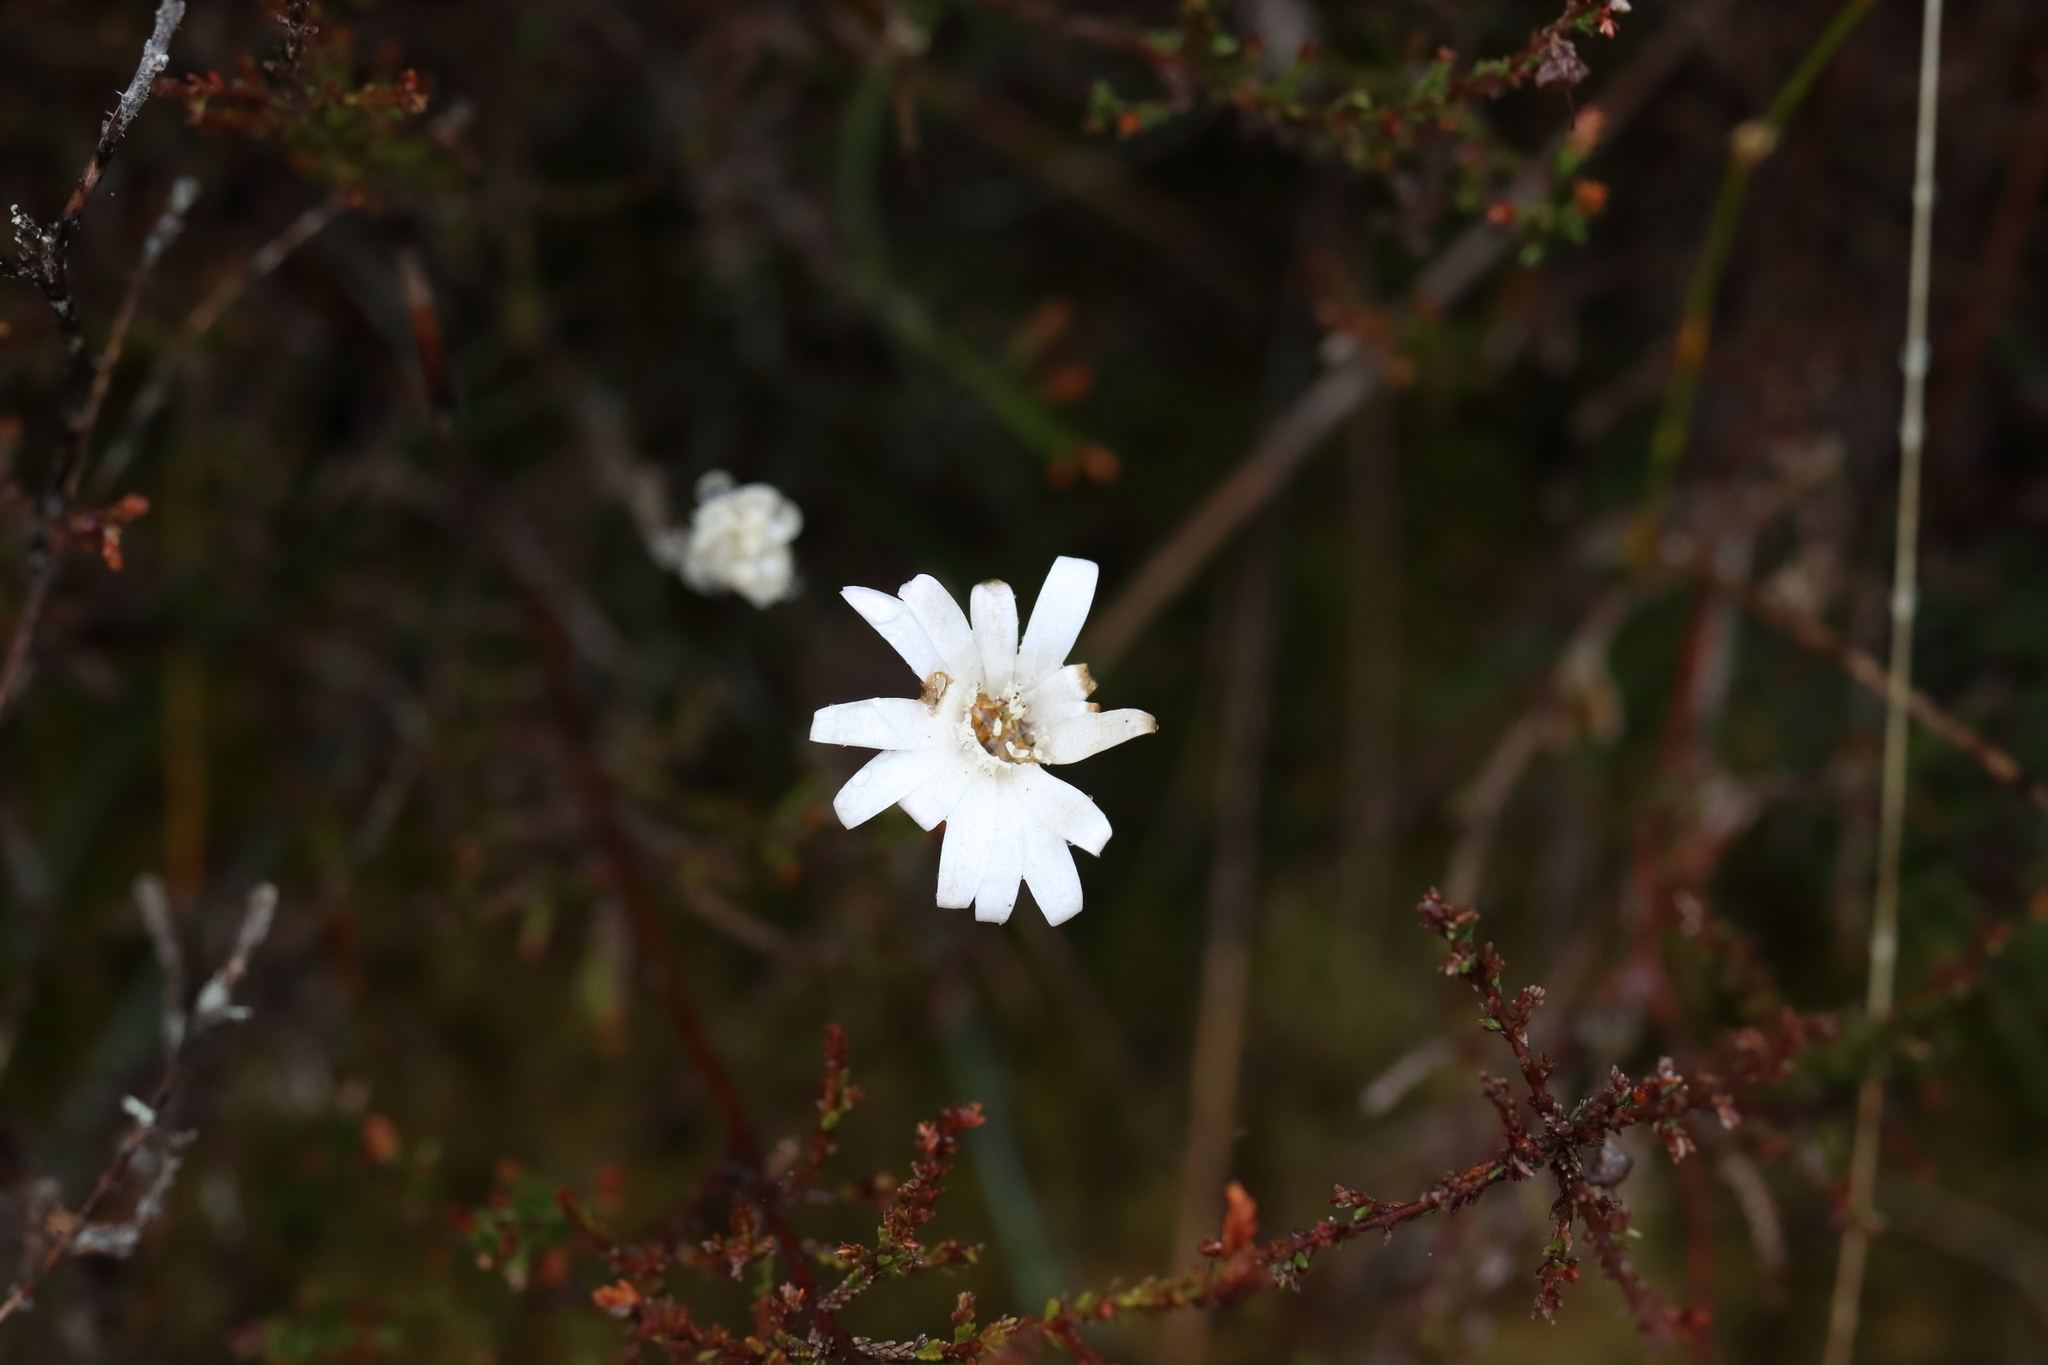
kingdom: Plantae
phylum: Tracheophyta
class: Magnoliopsida
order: Asterales
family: Asteraceae
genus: Celmisia
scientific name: Celmisia gracilenta
